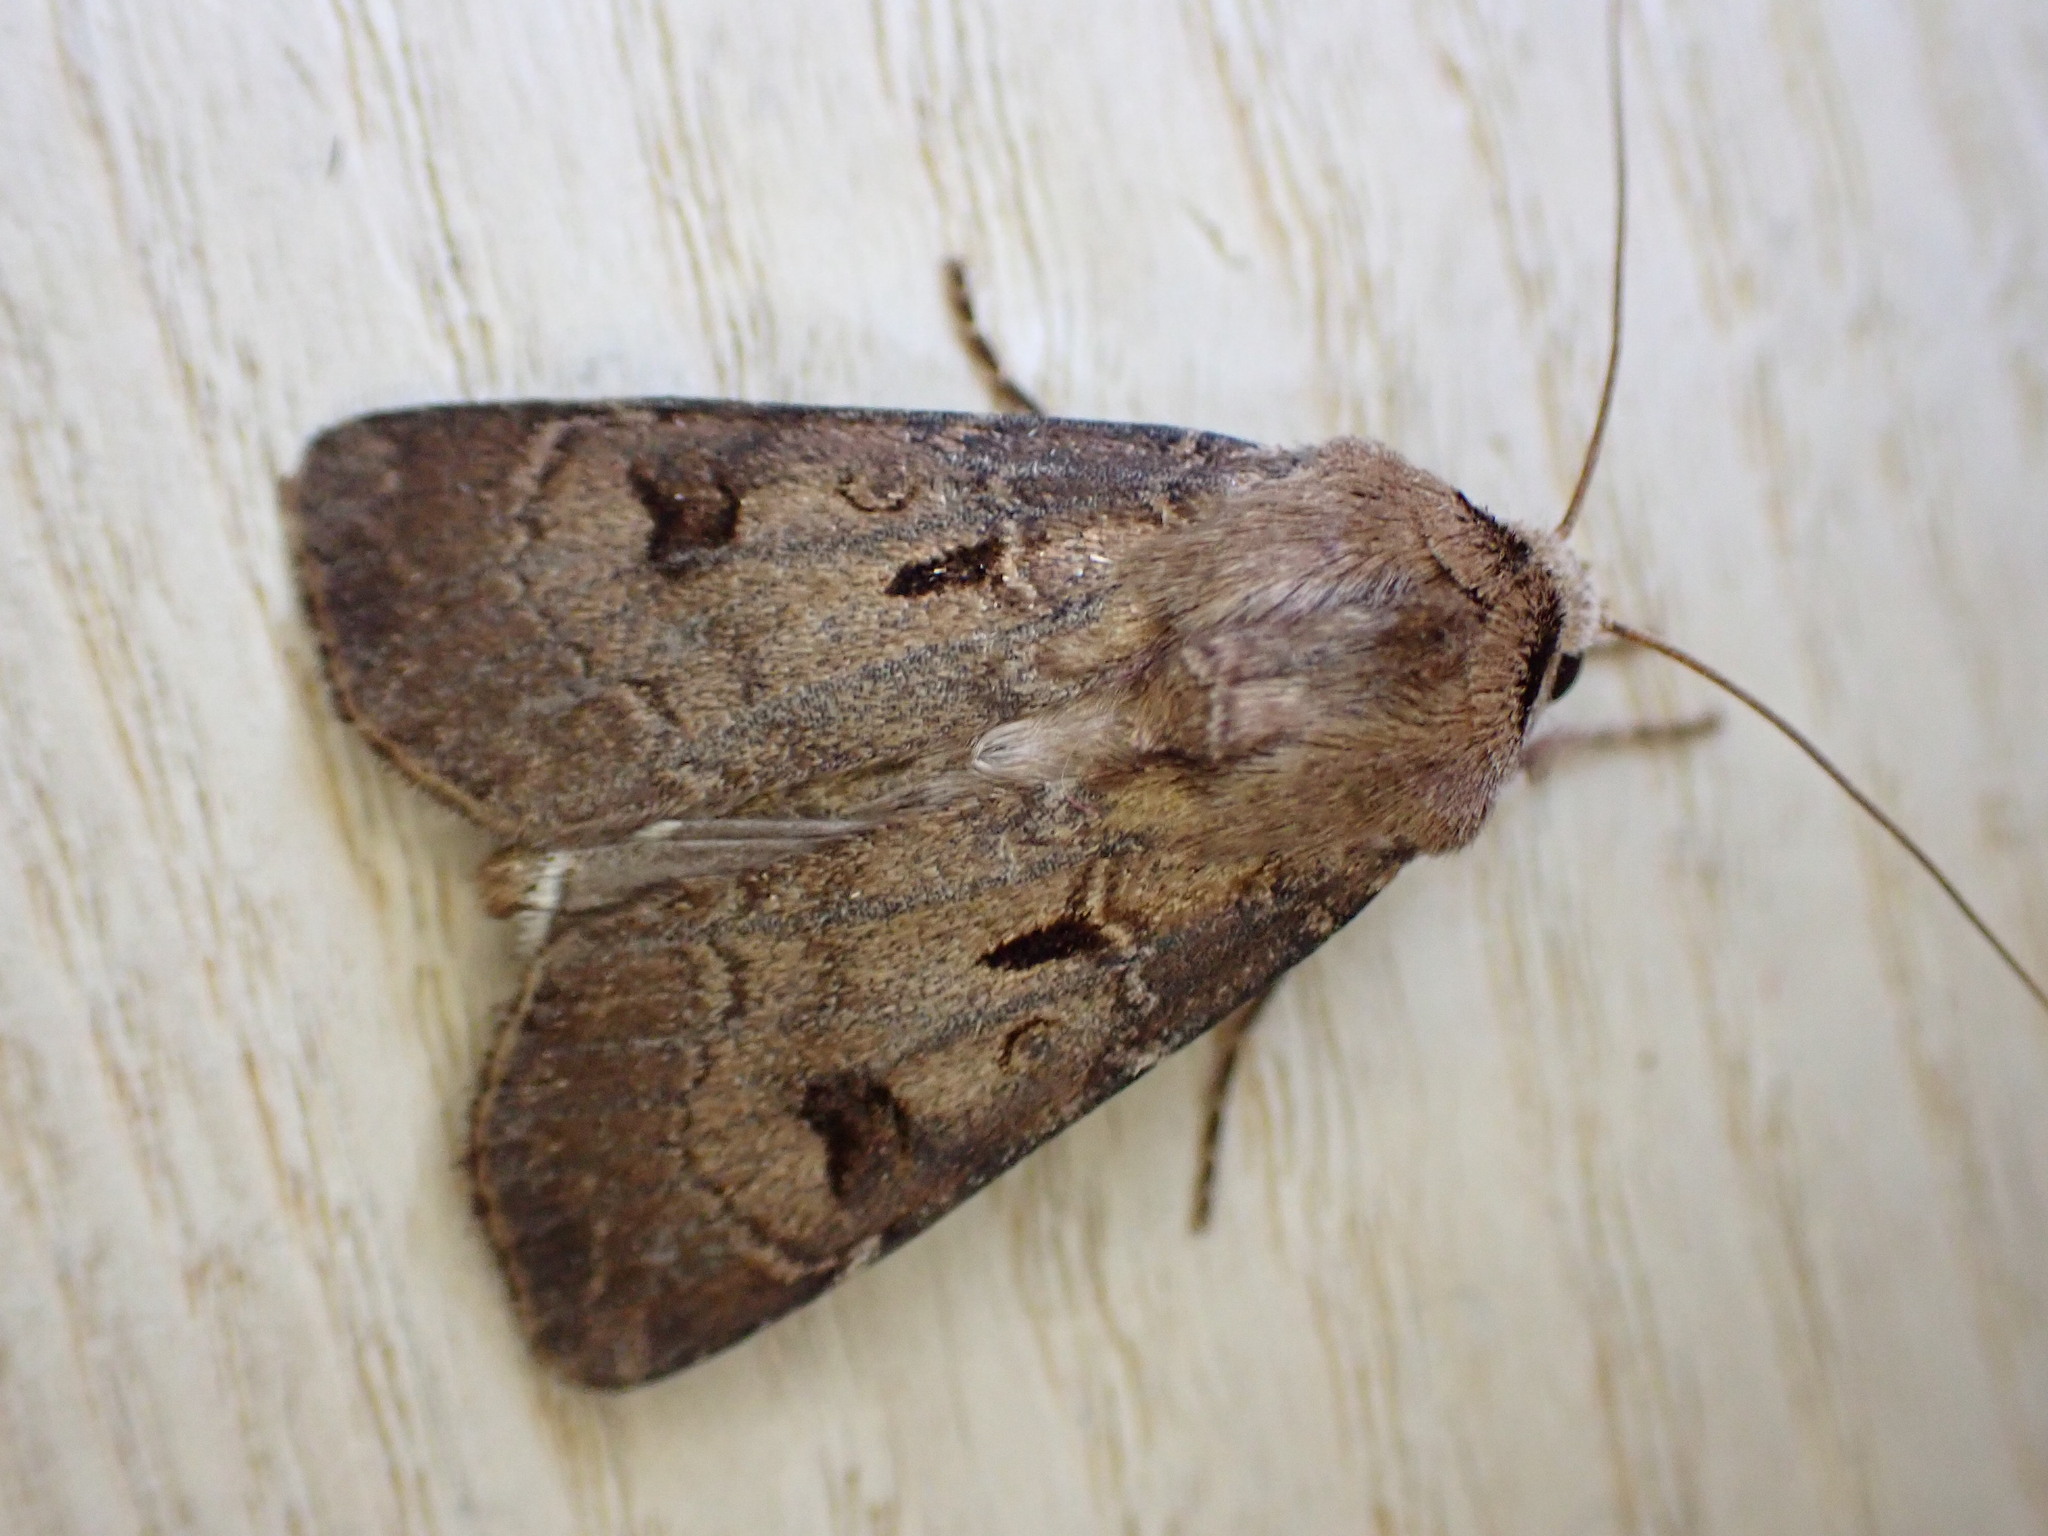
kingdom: Animalia
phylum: Arthropoda
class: Insecta
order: Lepidoptera
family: Noctuidae
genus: Agrotis
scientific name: Agrotis exclamationis
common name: Heart and dart
